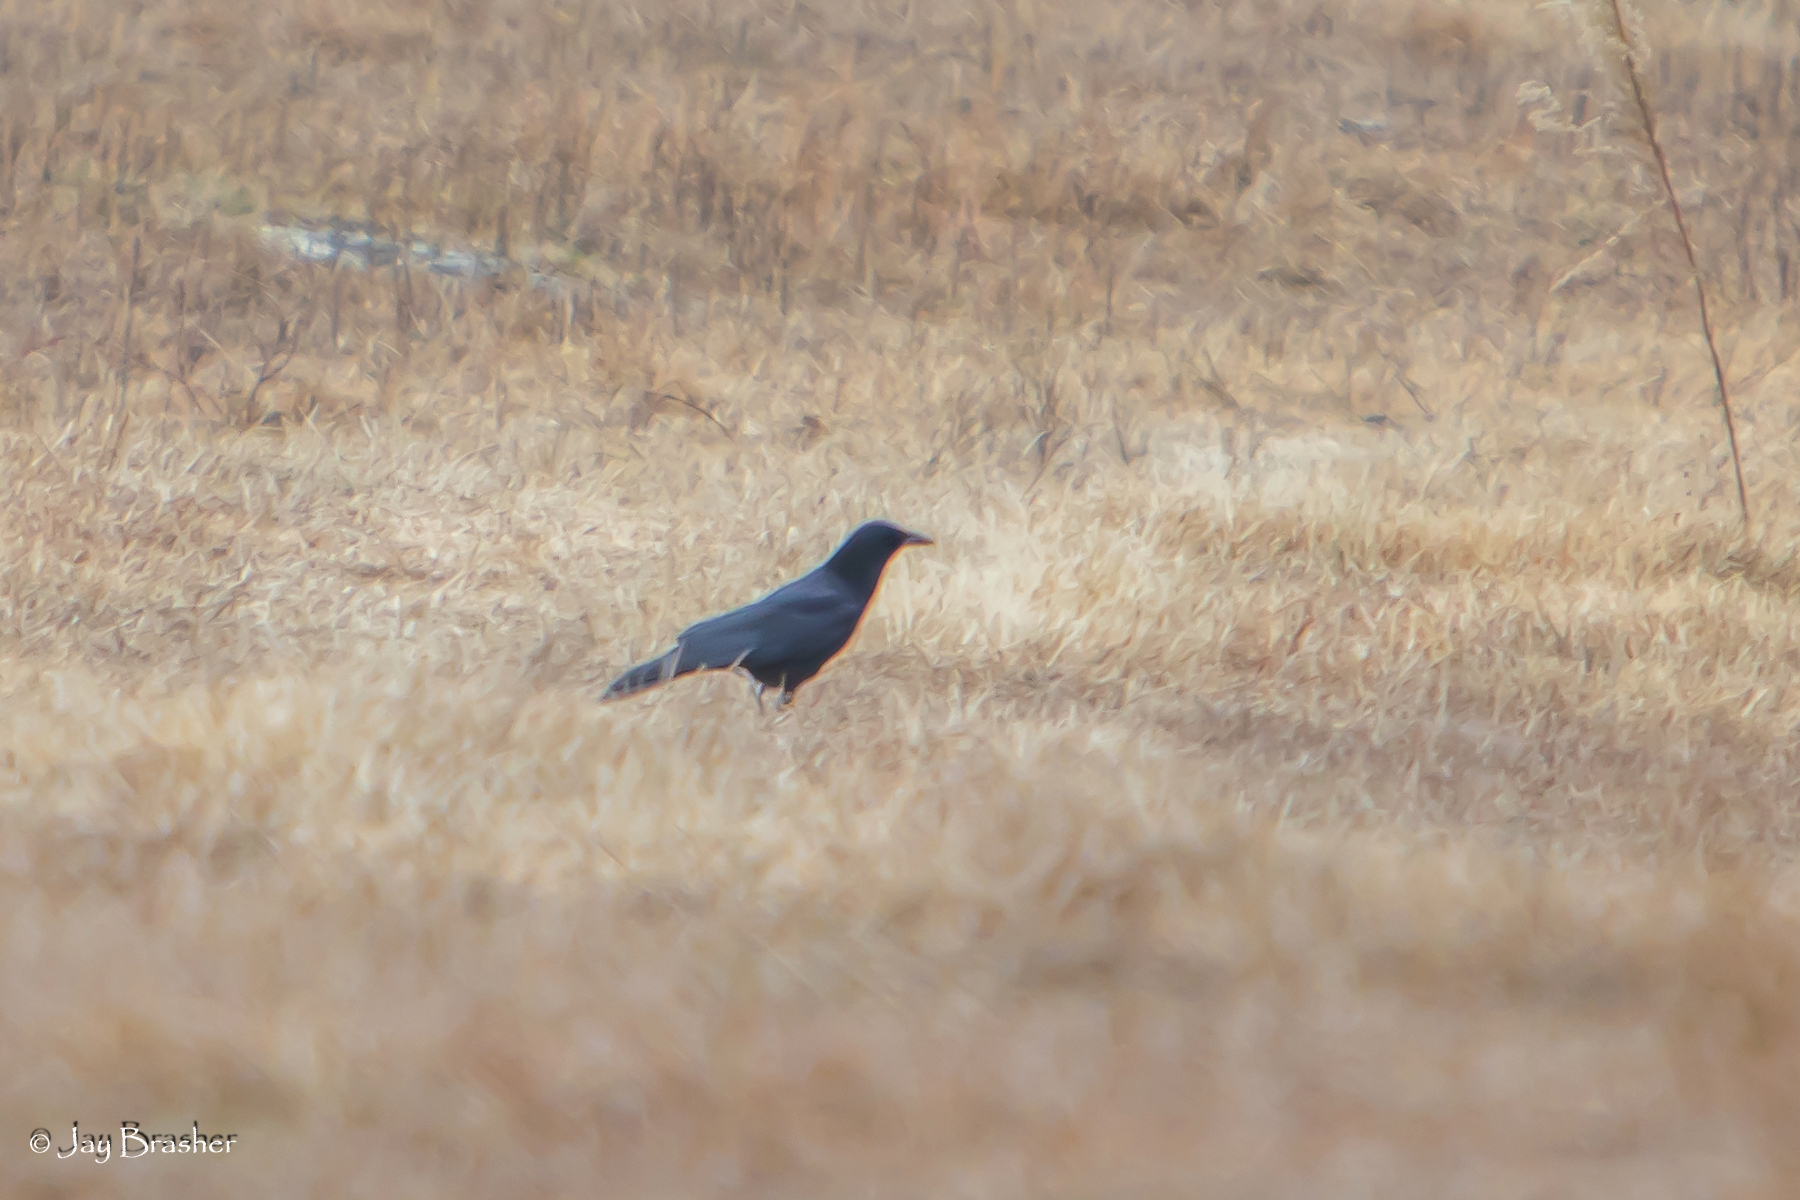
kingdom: Animalia
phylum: Chordata
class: Aves
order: Passeriformes
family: Corvidae
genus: Corvus
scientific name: Corvus brachyrhynchos
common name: American crow
